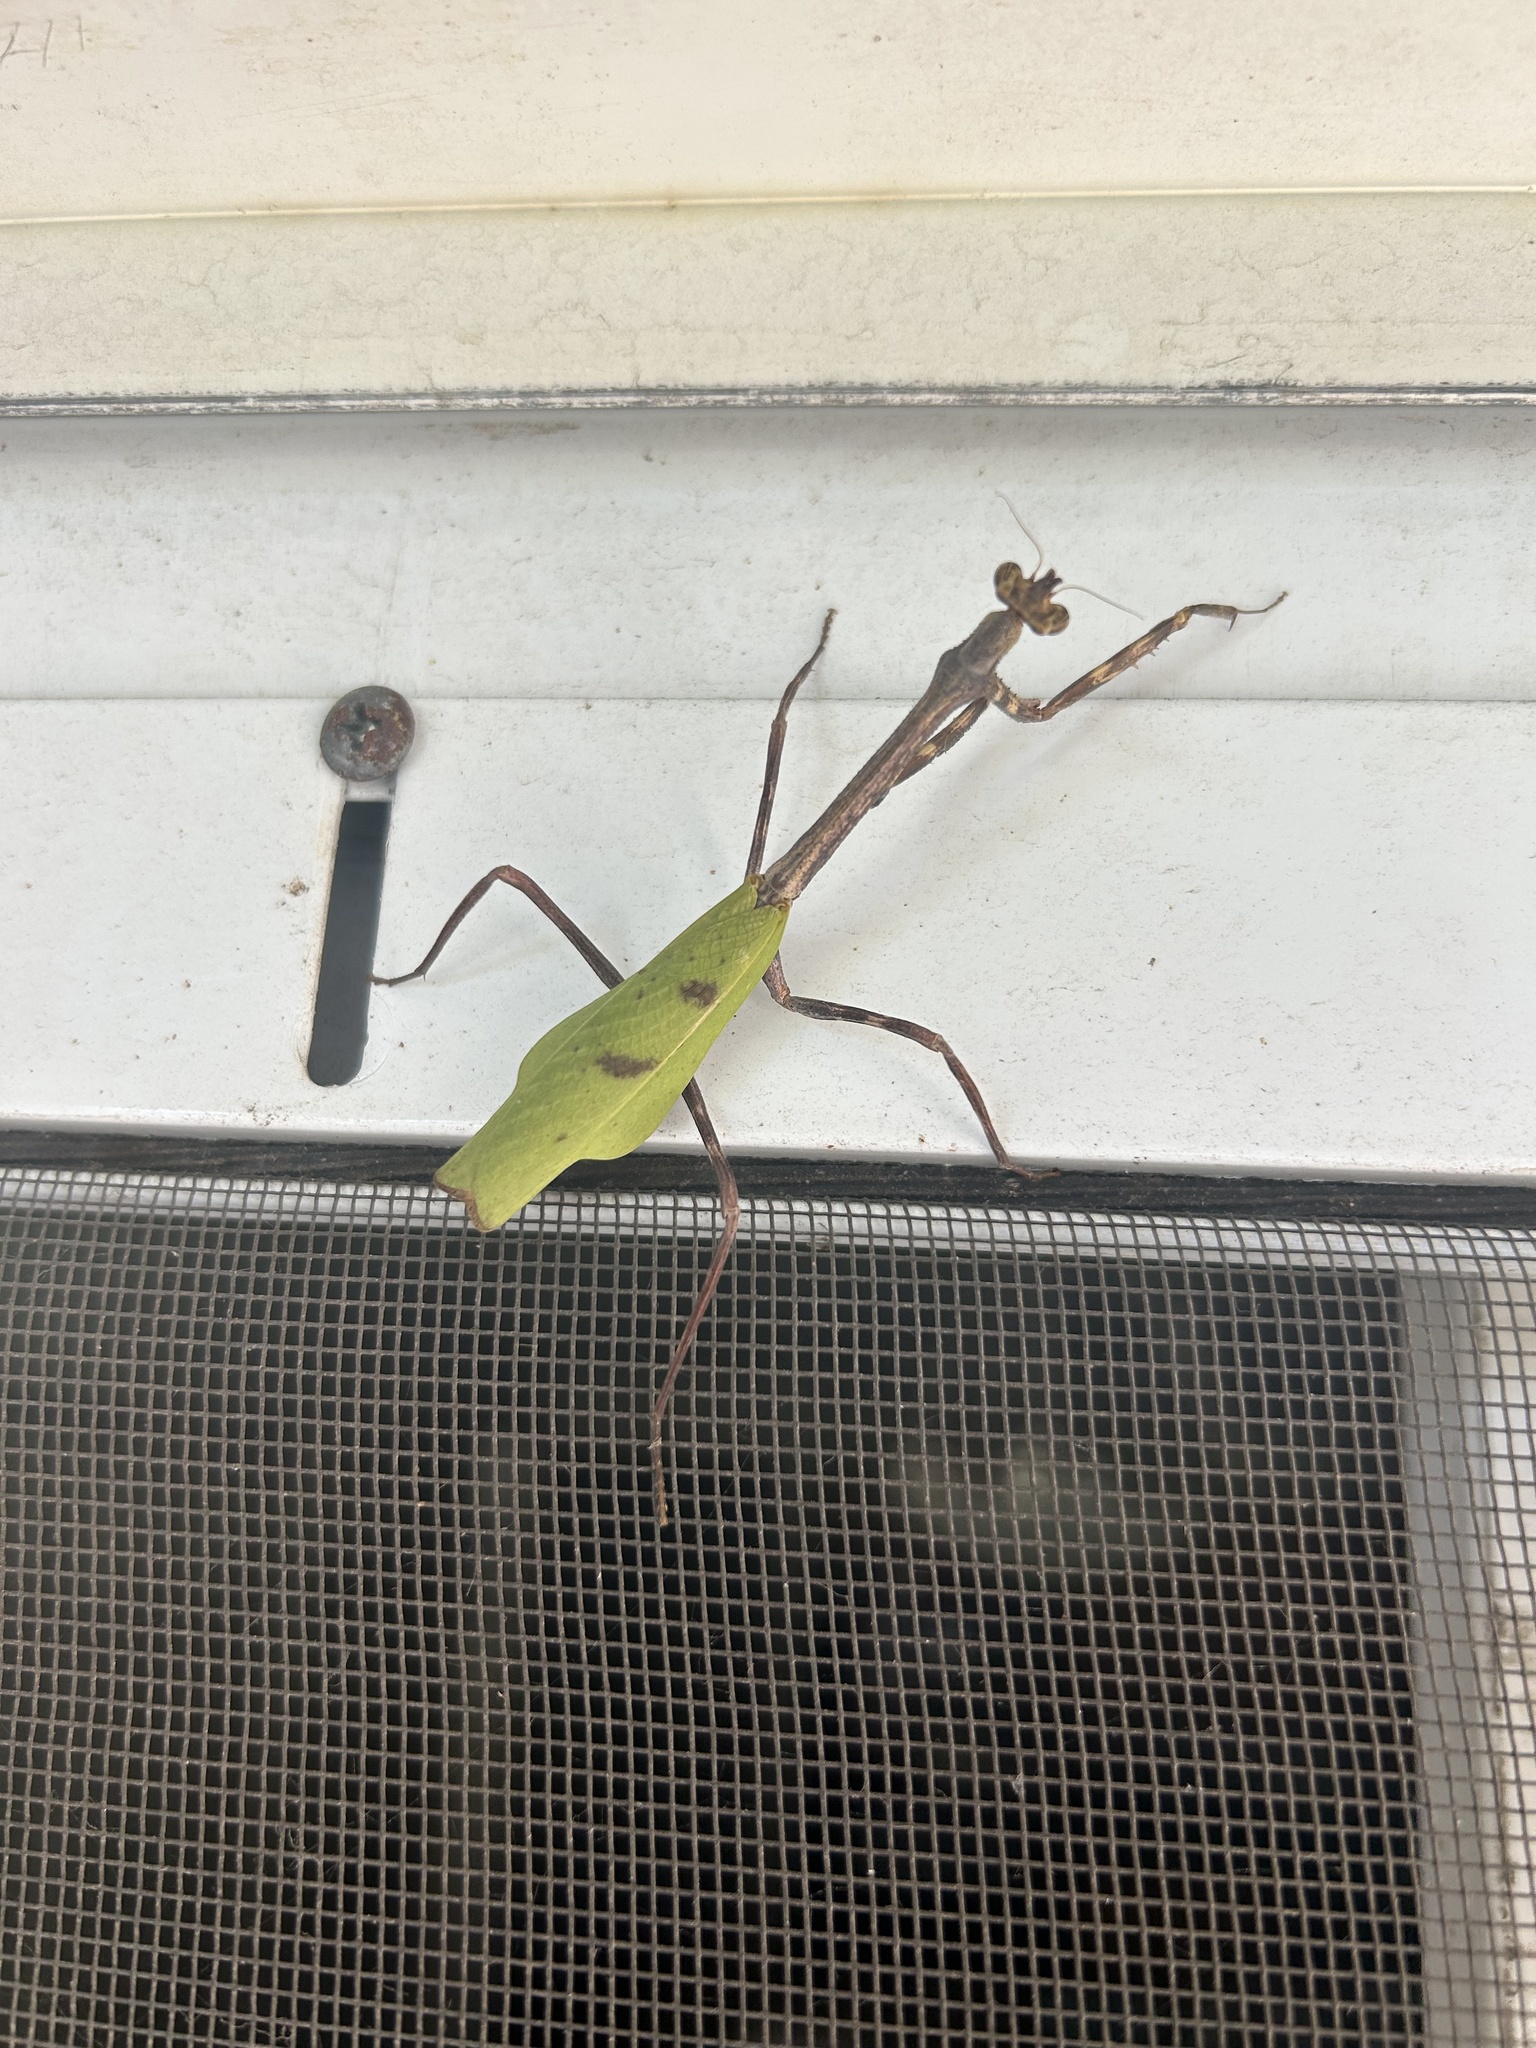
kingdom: Animalia
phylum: Arthropoda
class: Insecta
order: Mantodea
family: Mantidae
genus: Pseudovates
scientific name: Pseudovates chlorophaea
